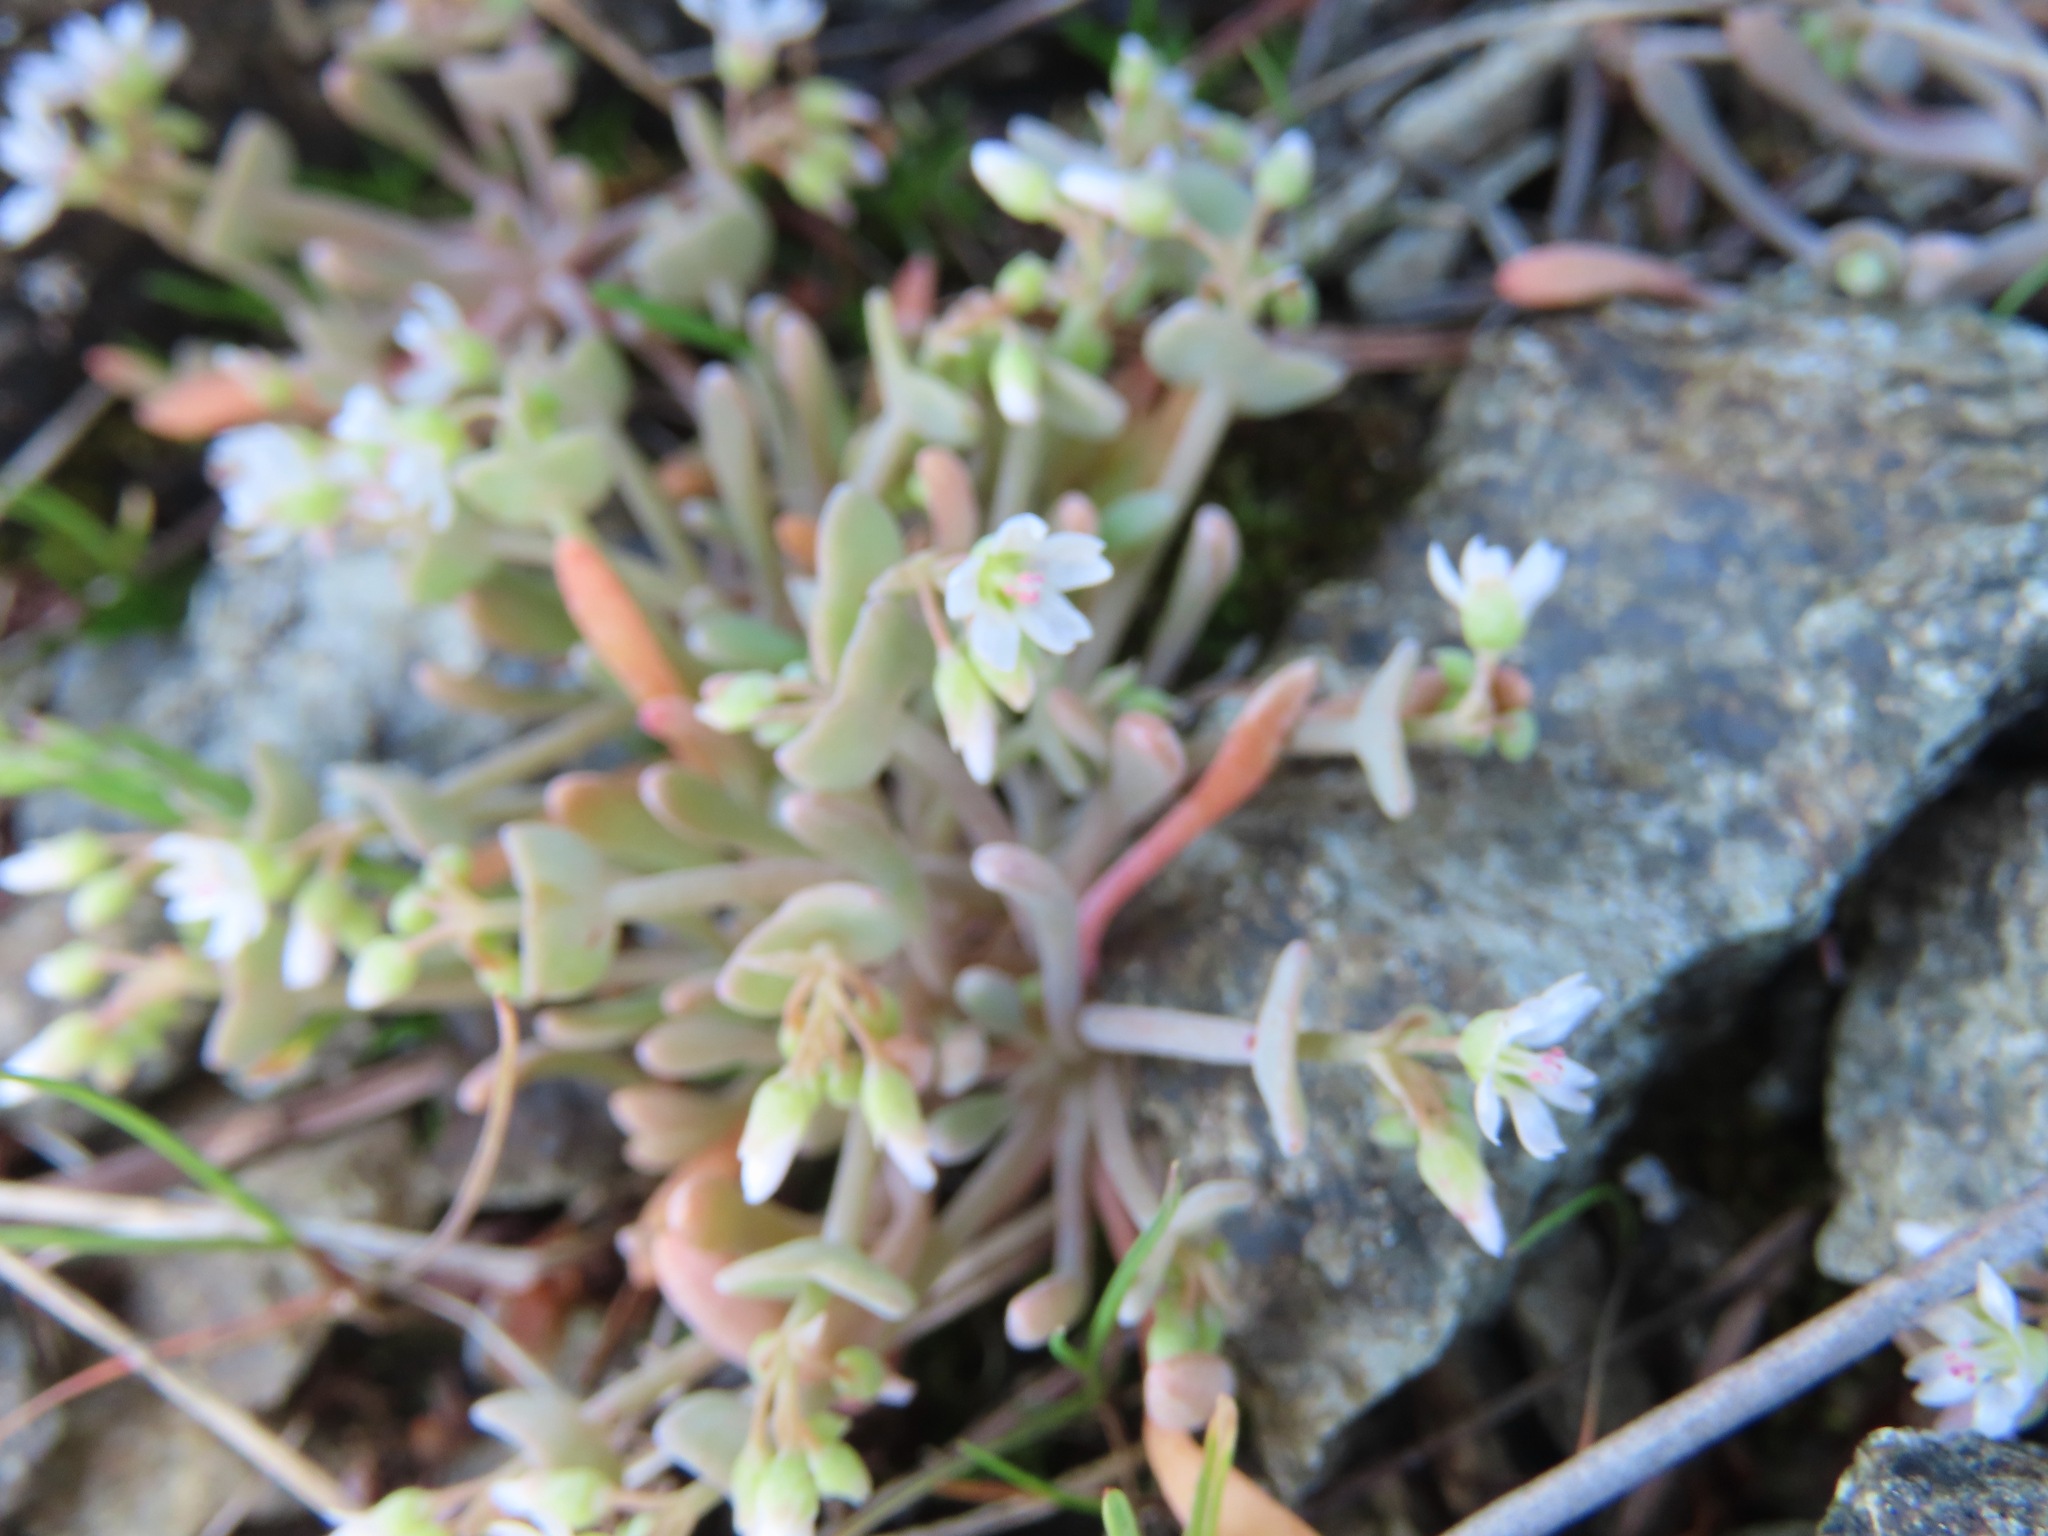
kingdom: Plantae
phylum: Tracheophyta
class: Magnoliopsida
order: Caryophyllales
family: Montiaceae
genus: Claytonia
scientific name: Claytonia exigua
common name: Pale spring beauty
